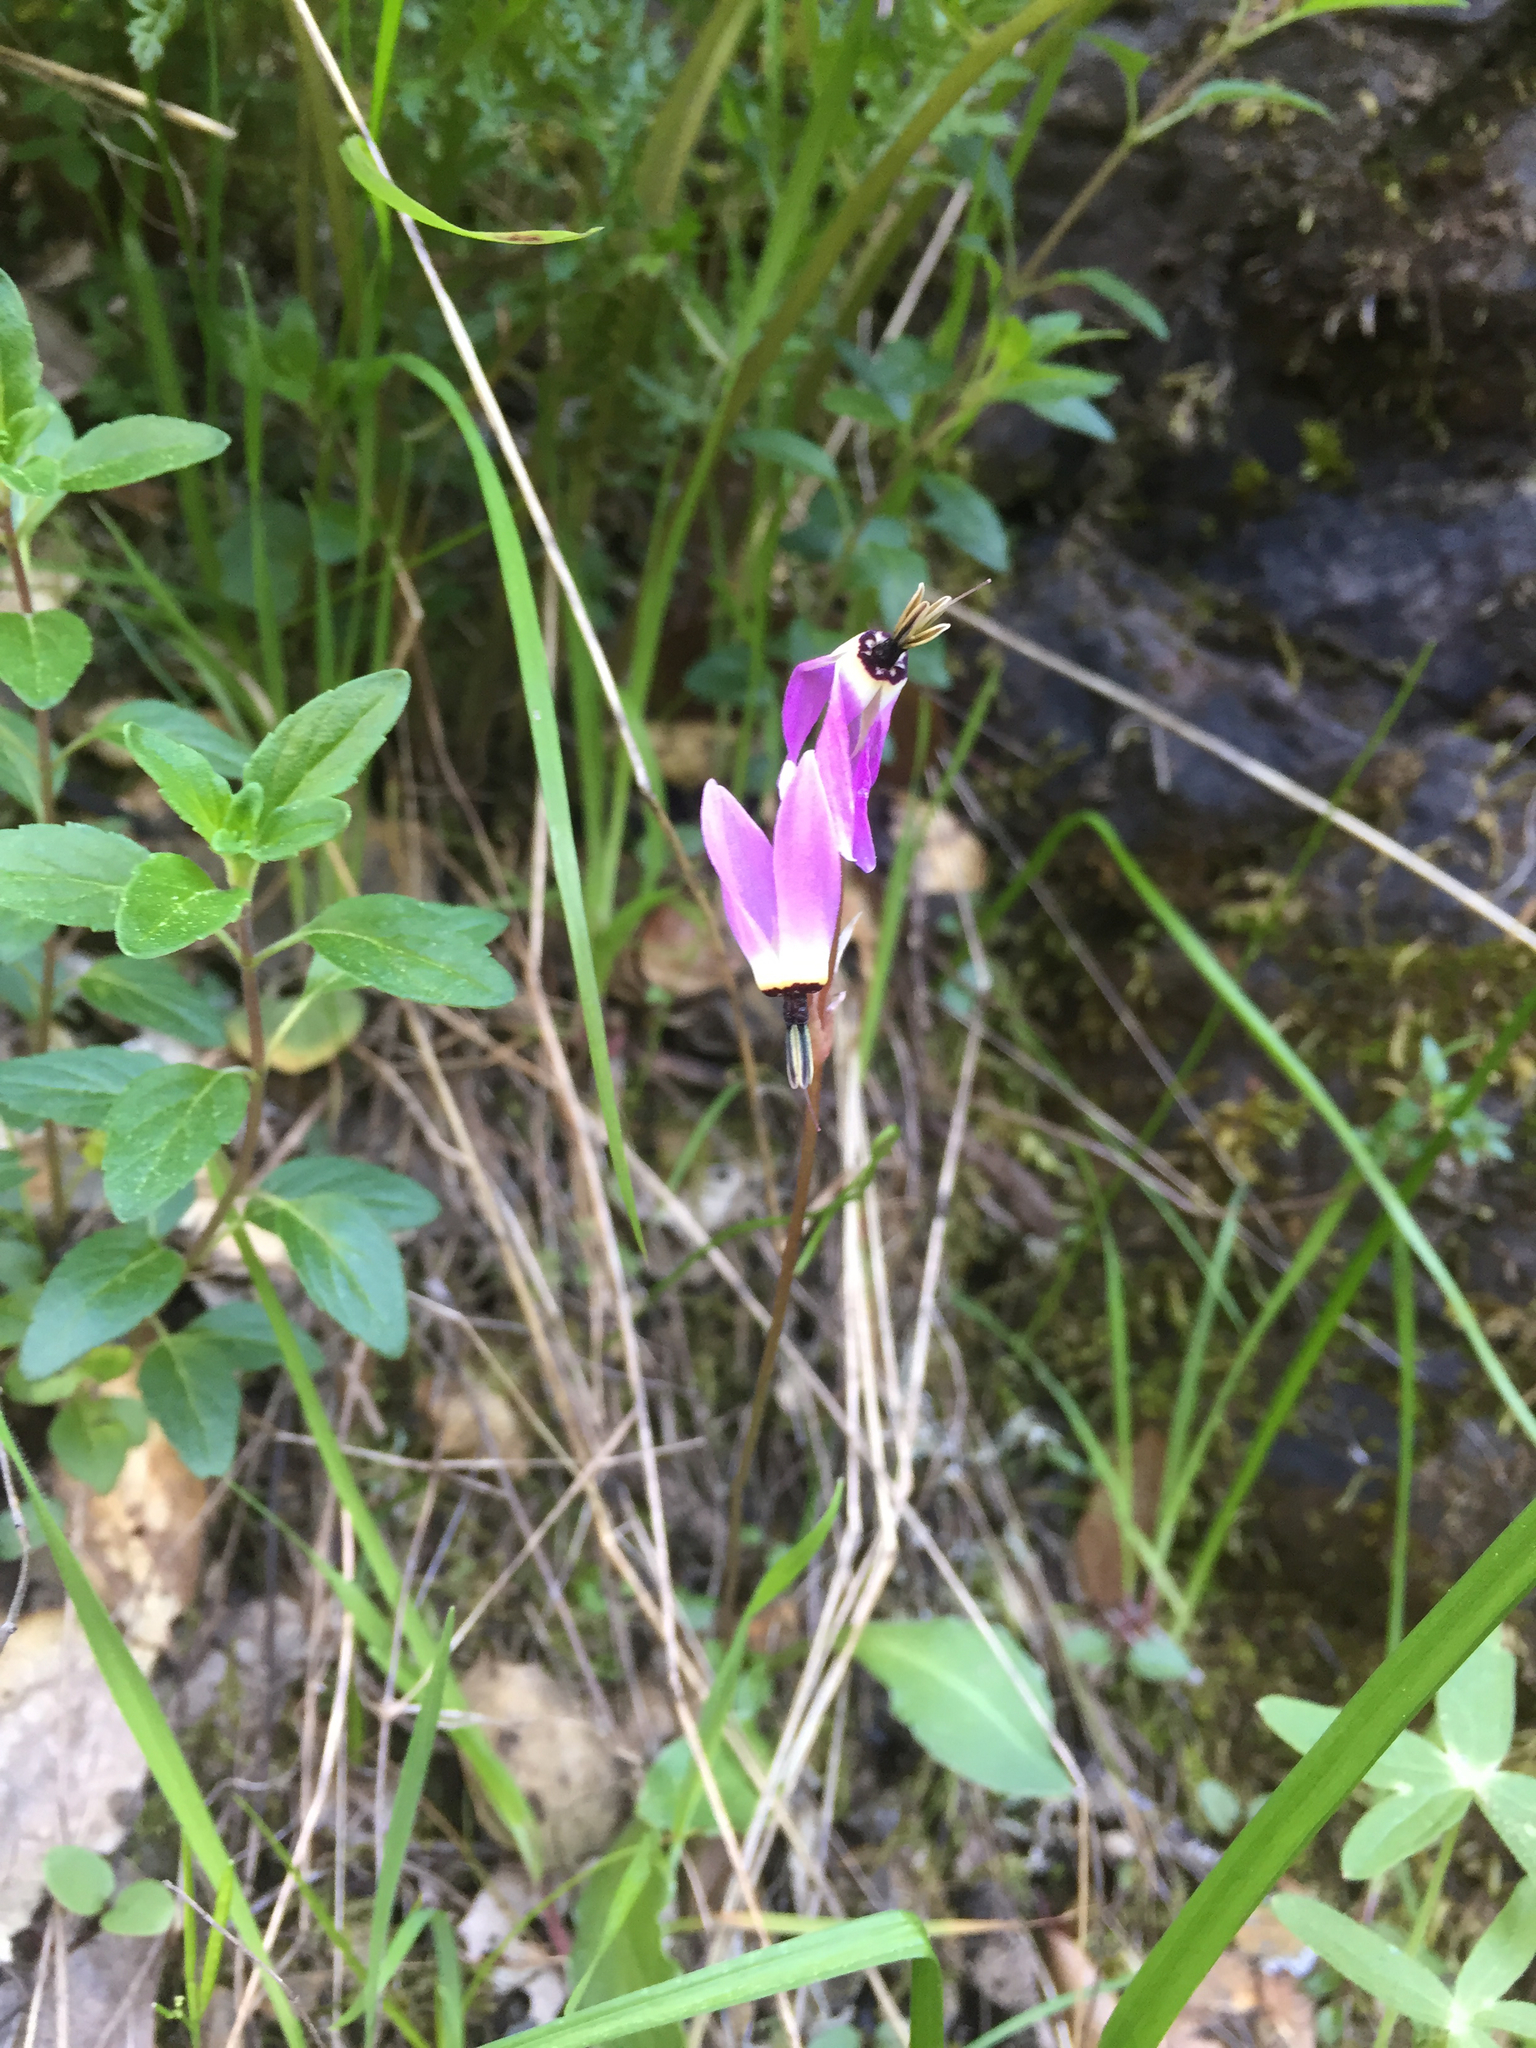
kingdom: Plantae
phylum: Tracheophyta
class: Magnoliopsida
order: Ericales
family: Primulaceae
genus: Dodecatheon
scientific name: Dodecatheon hendersonii
